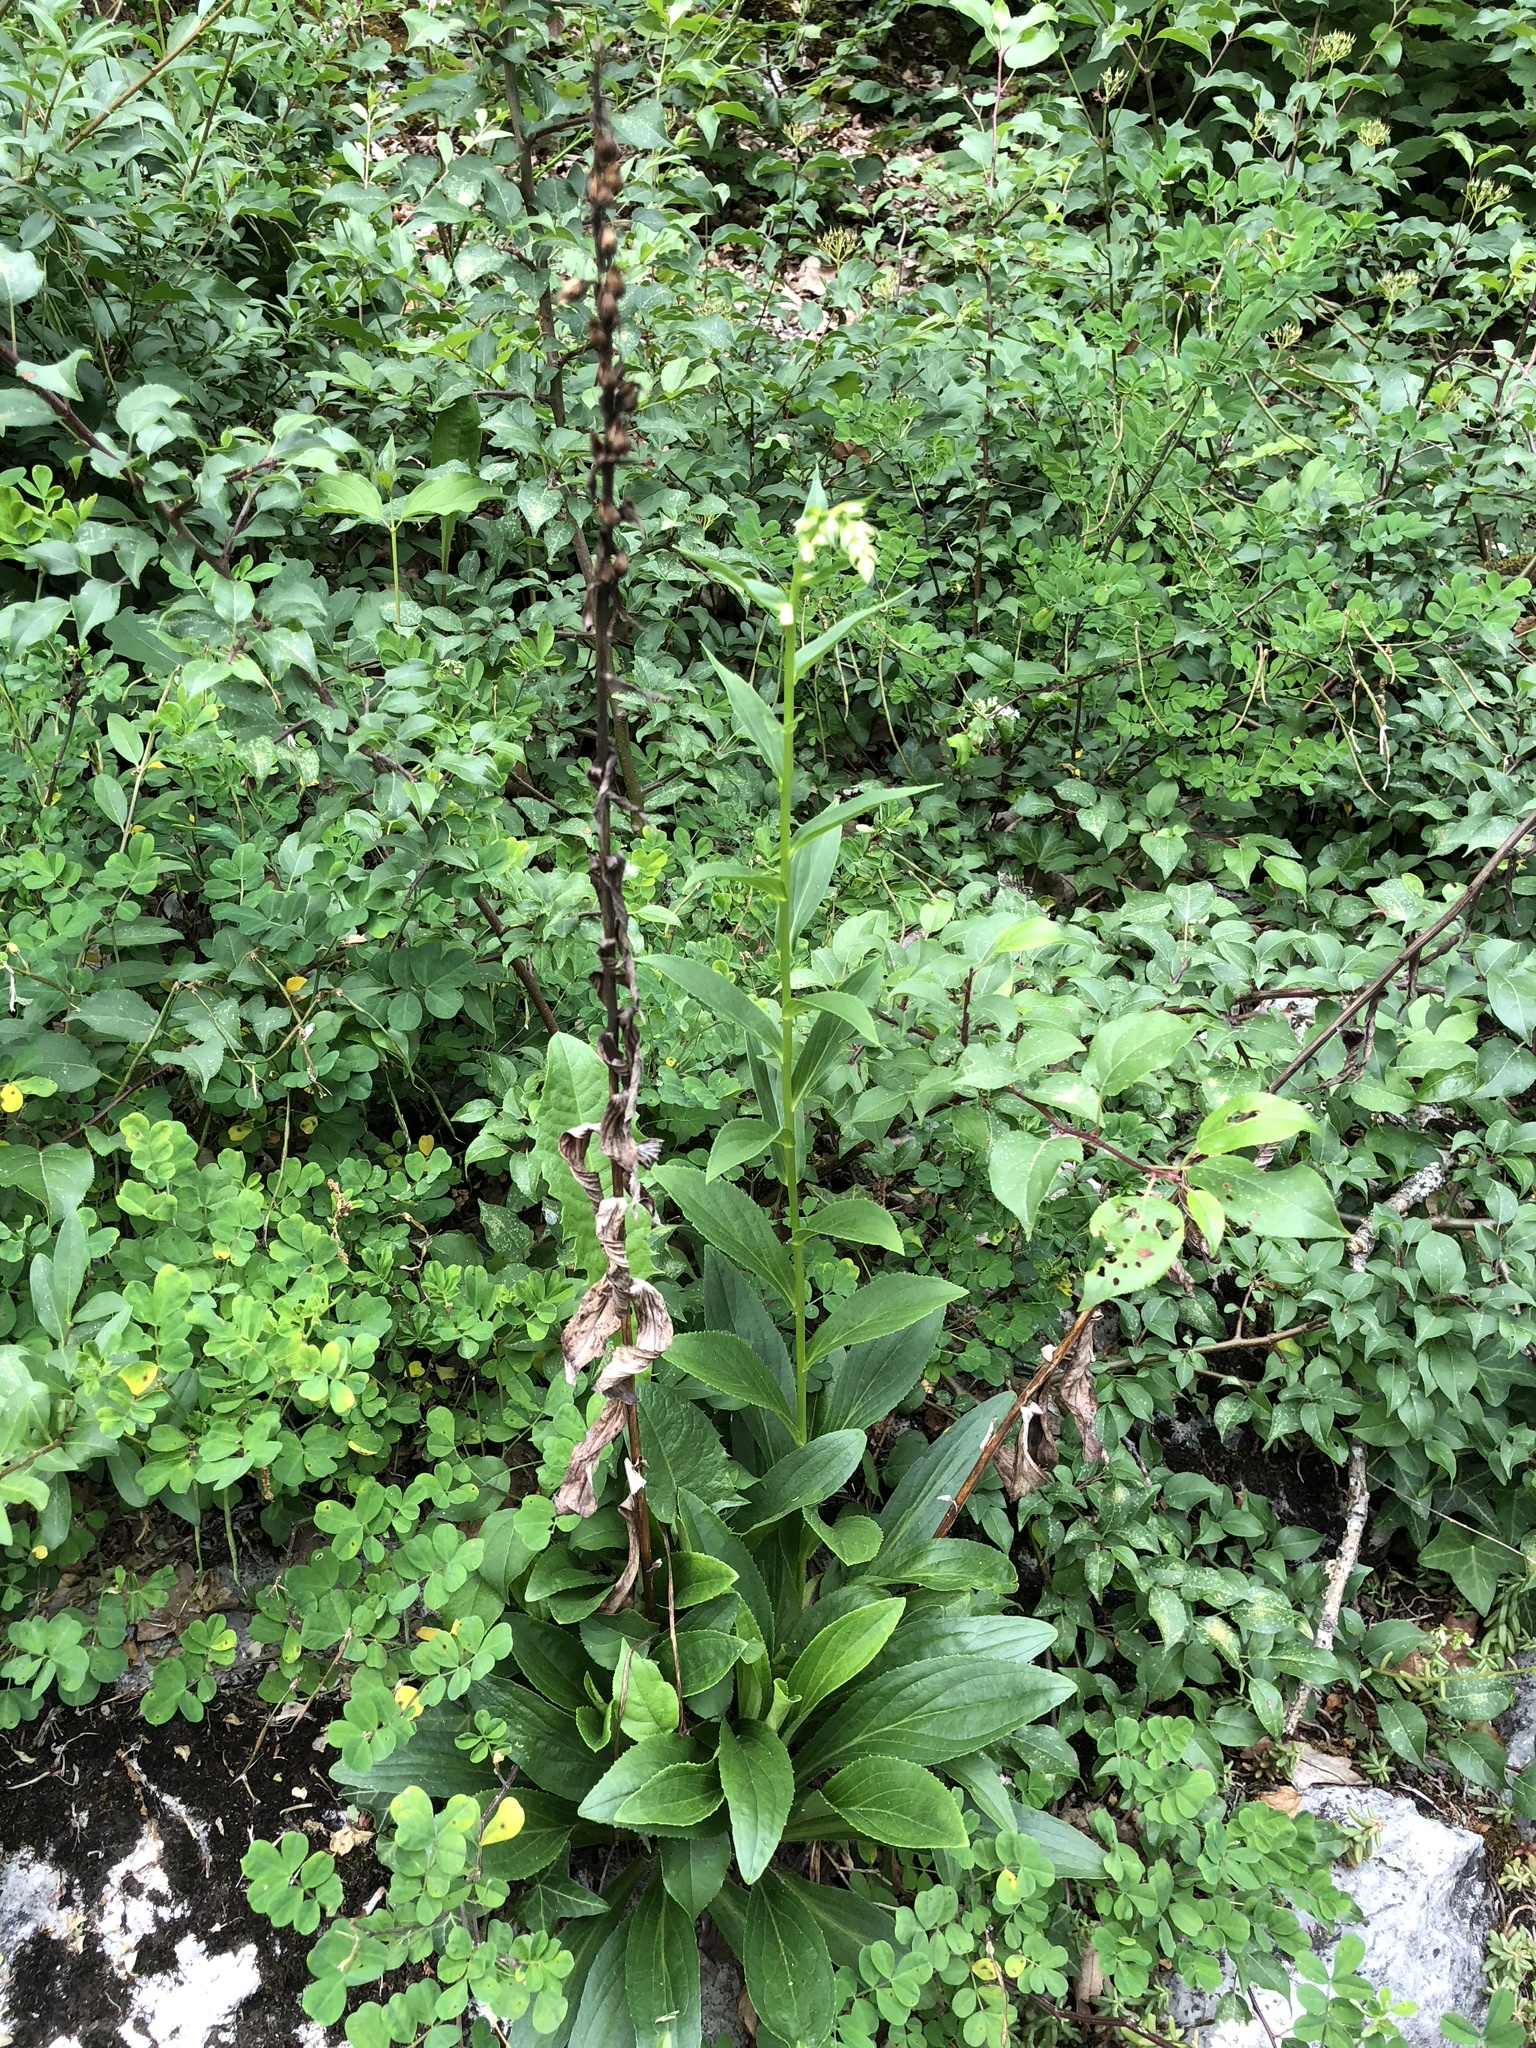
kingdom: Plantae
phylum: Tracheophyta
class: Magnoliopsida
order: Lamiales
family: Plantaginaceae
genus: Digitalis
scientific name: Digitalis lutea
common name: Straw foxglove
